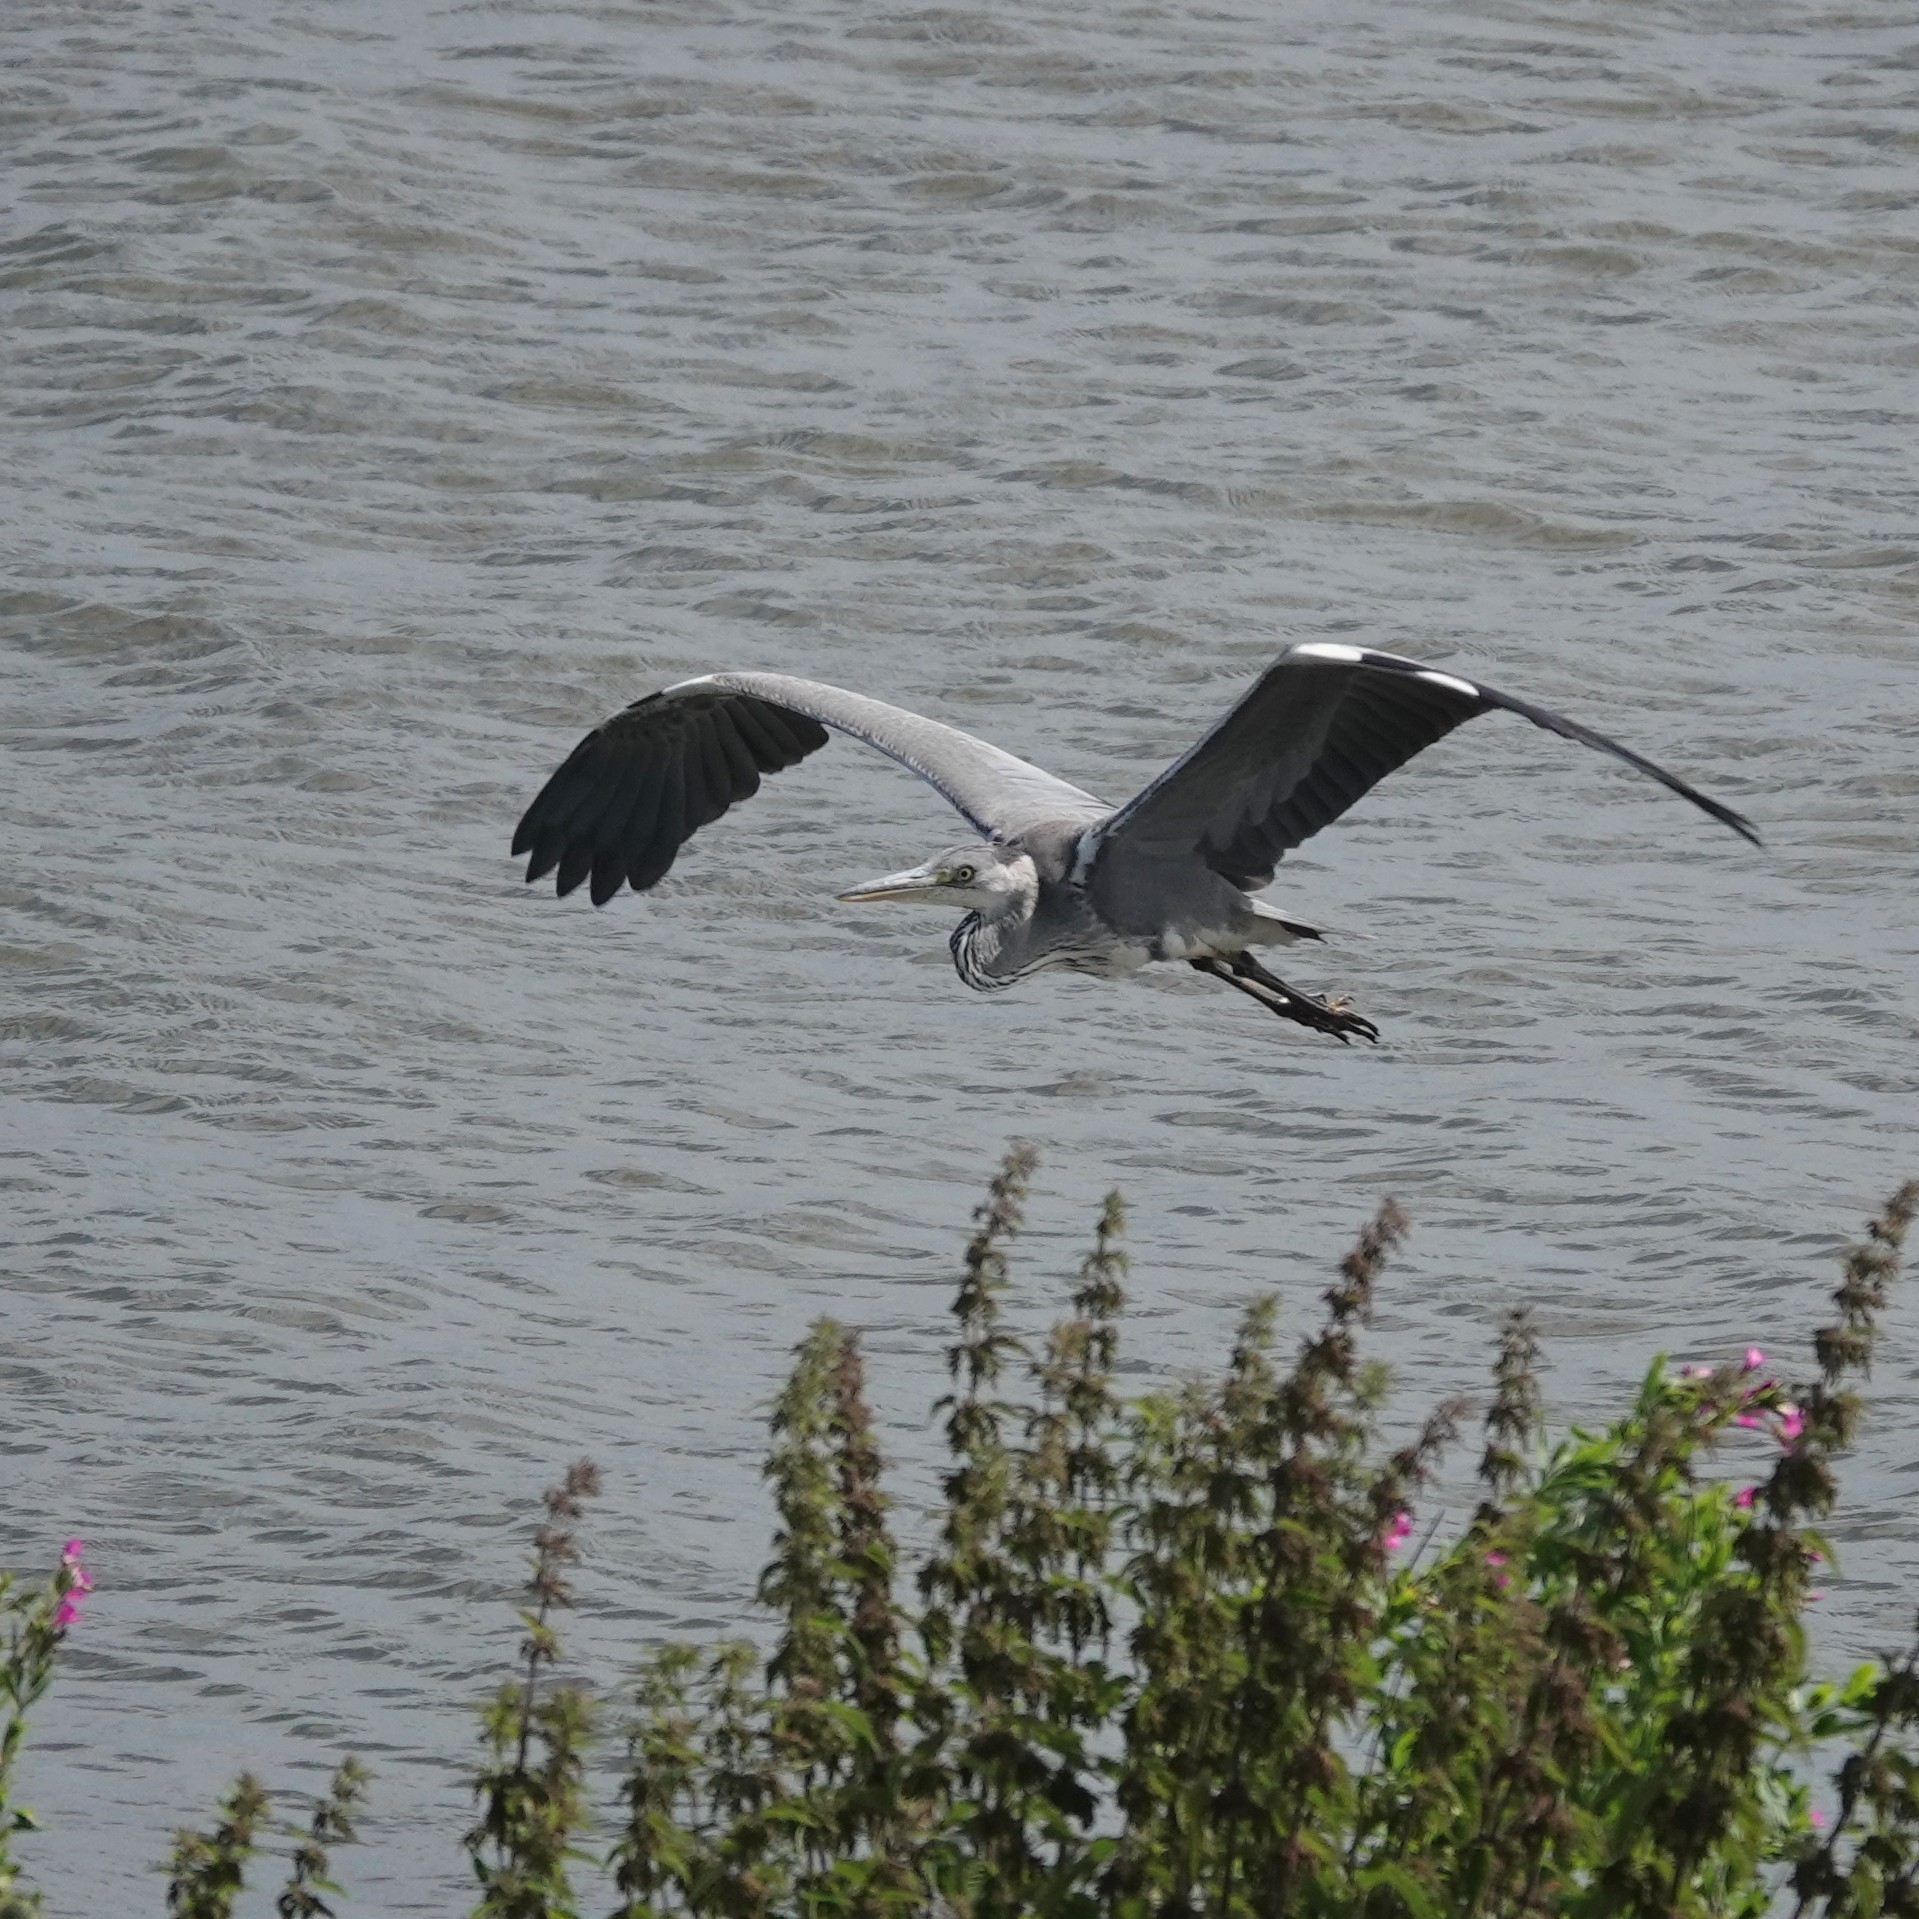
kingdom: Animalia
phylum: Chordata
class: Aves
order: Pelecaniformes
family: Ardeidae
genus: Ardea
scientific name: Ardea cinerea
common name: Grey heron
